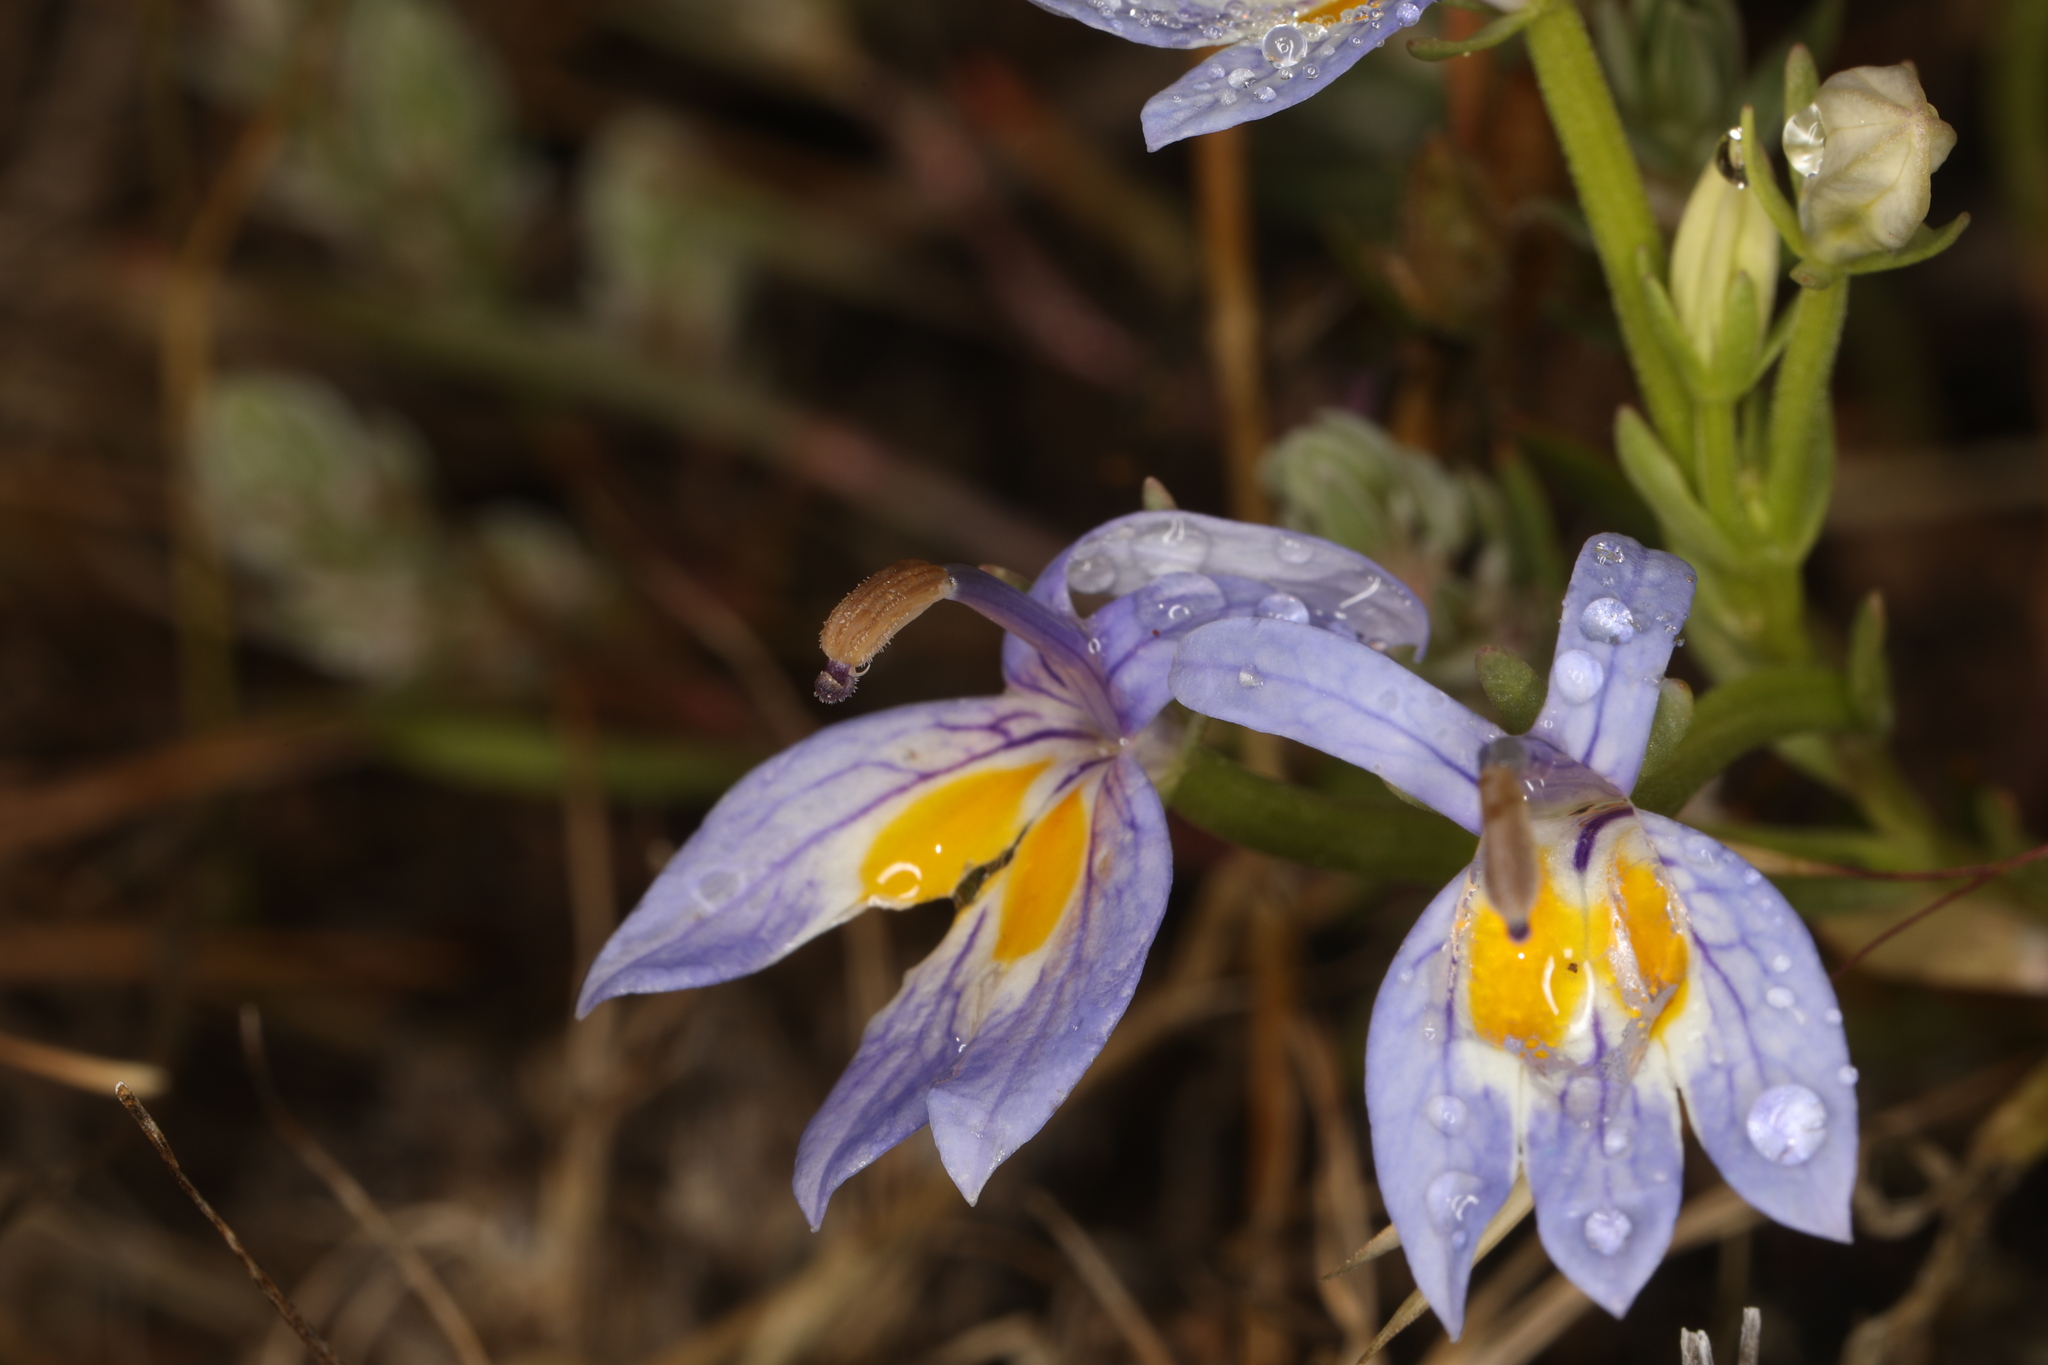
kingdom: Plantae
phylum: Tracheophyta
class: Magnoliopsida
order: Asterales
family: Campanulaceae
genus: Downingia
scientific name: Downingia bacigalupii
